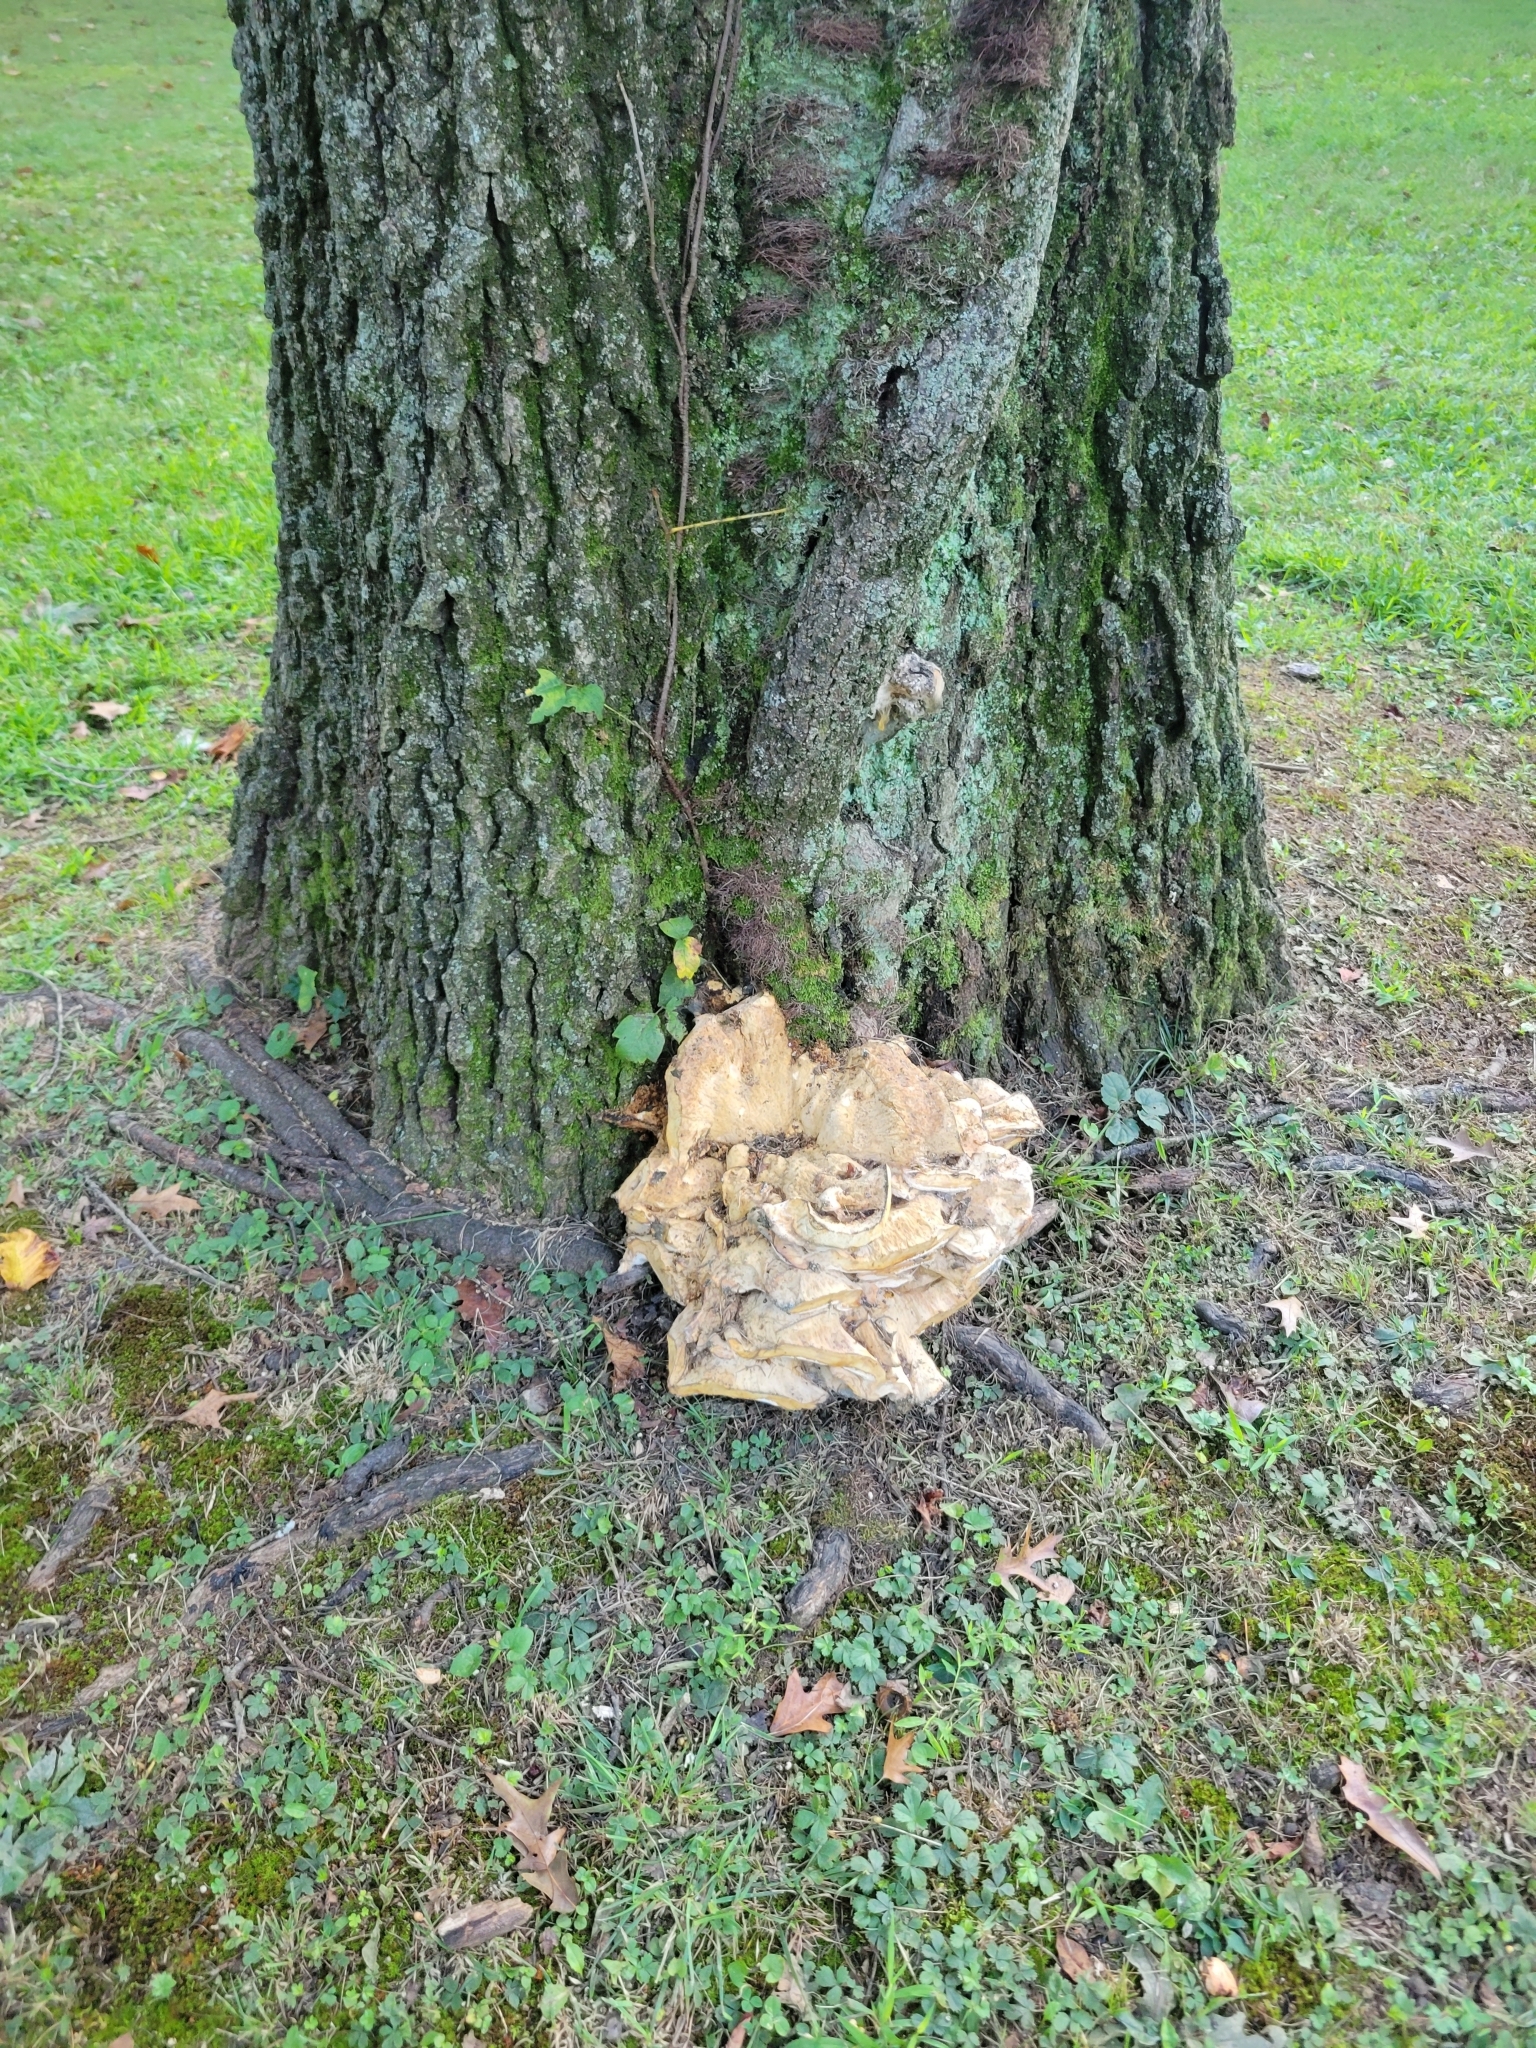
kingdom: Fungi
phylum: Basidiomycota
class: Agaricomycetes
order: Russulales
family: Bondarzewiaceae
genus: Bondarzewia
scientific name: Bondarzewia berkeleyi
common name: Berkeley's polypore
